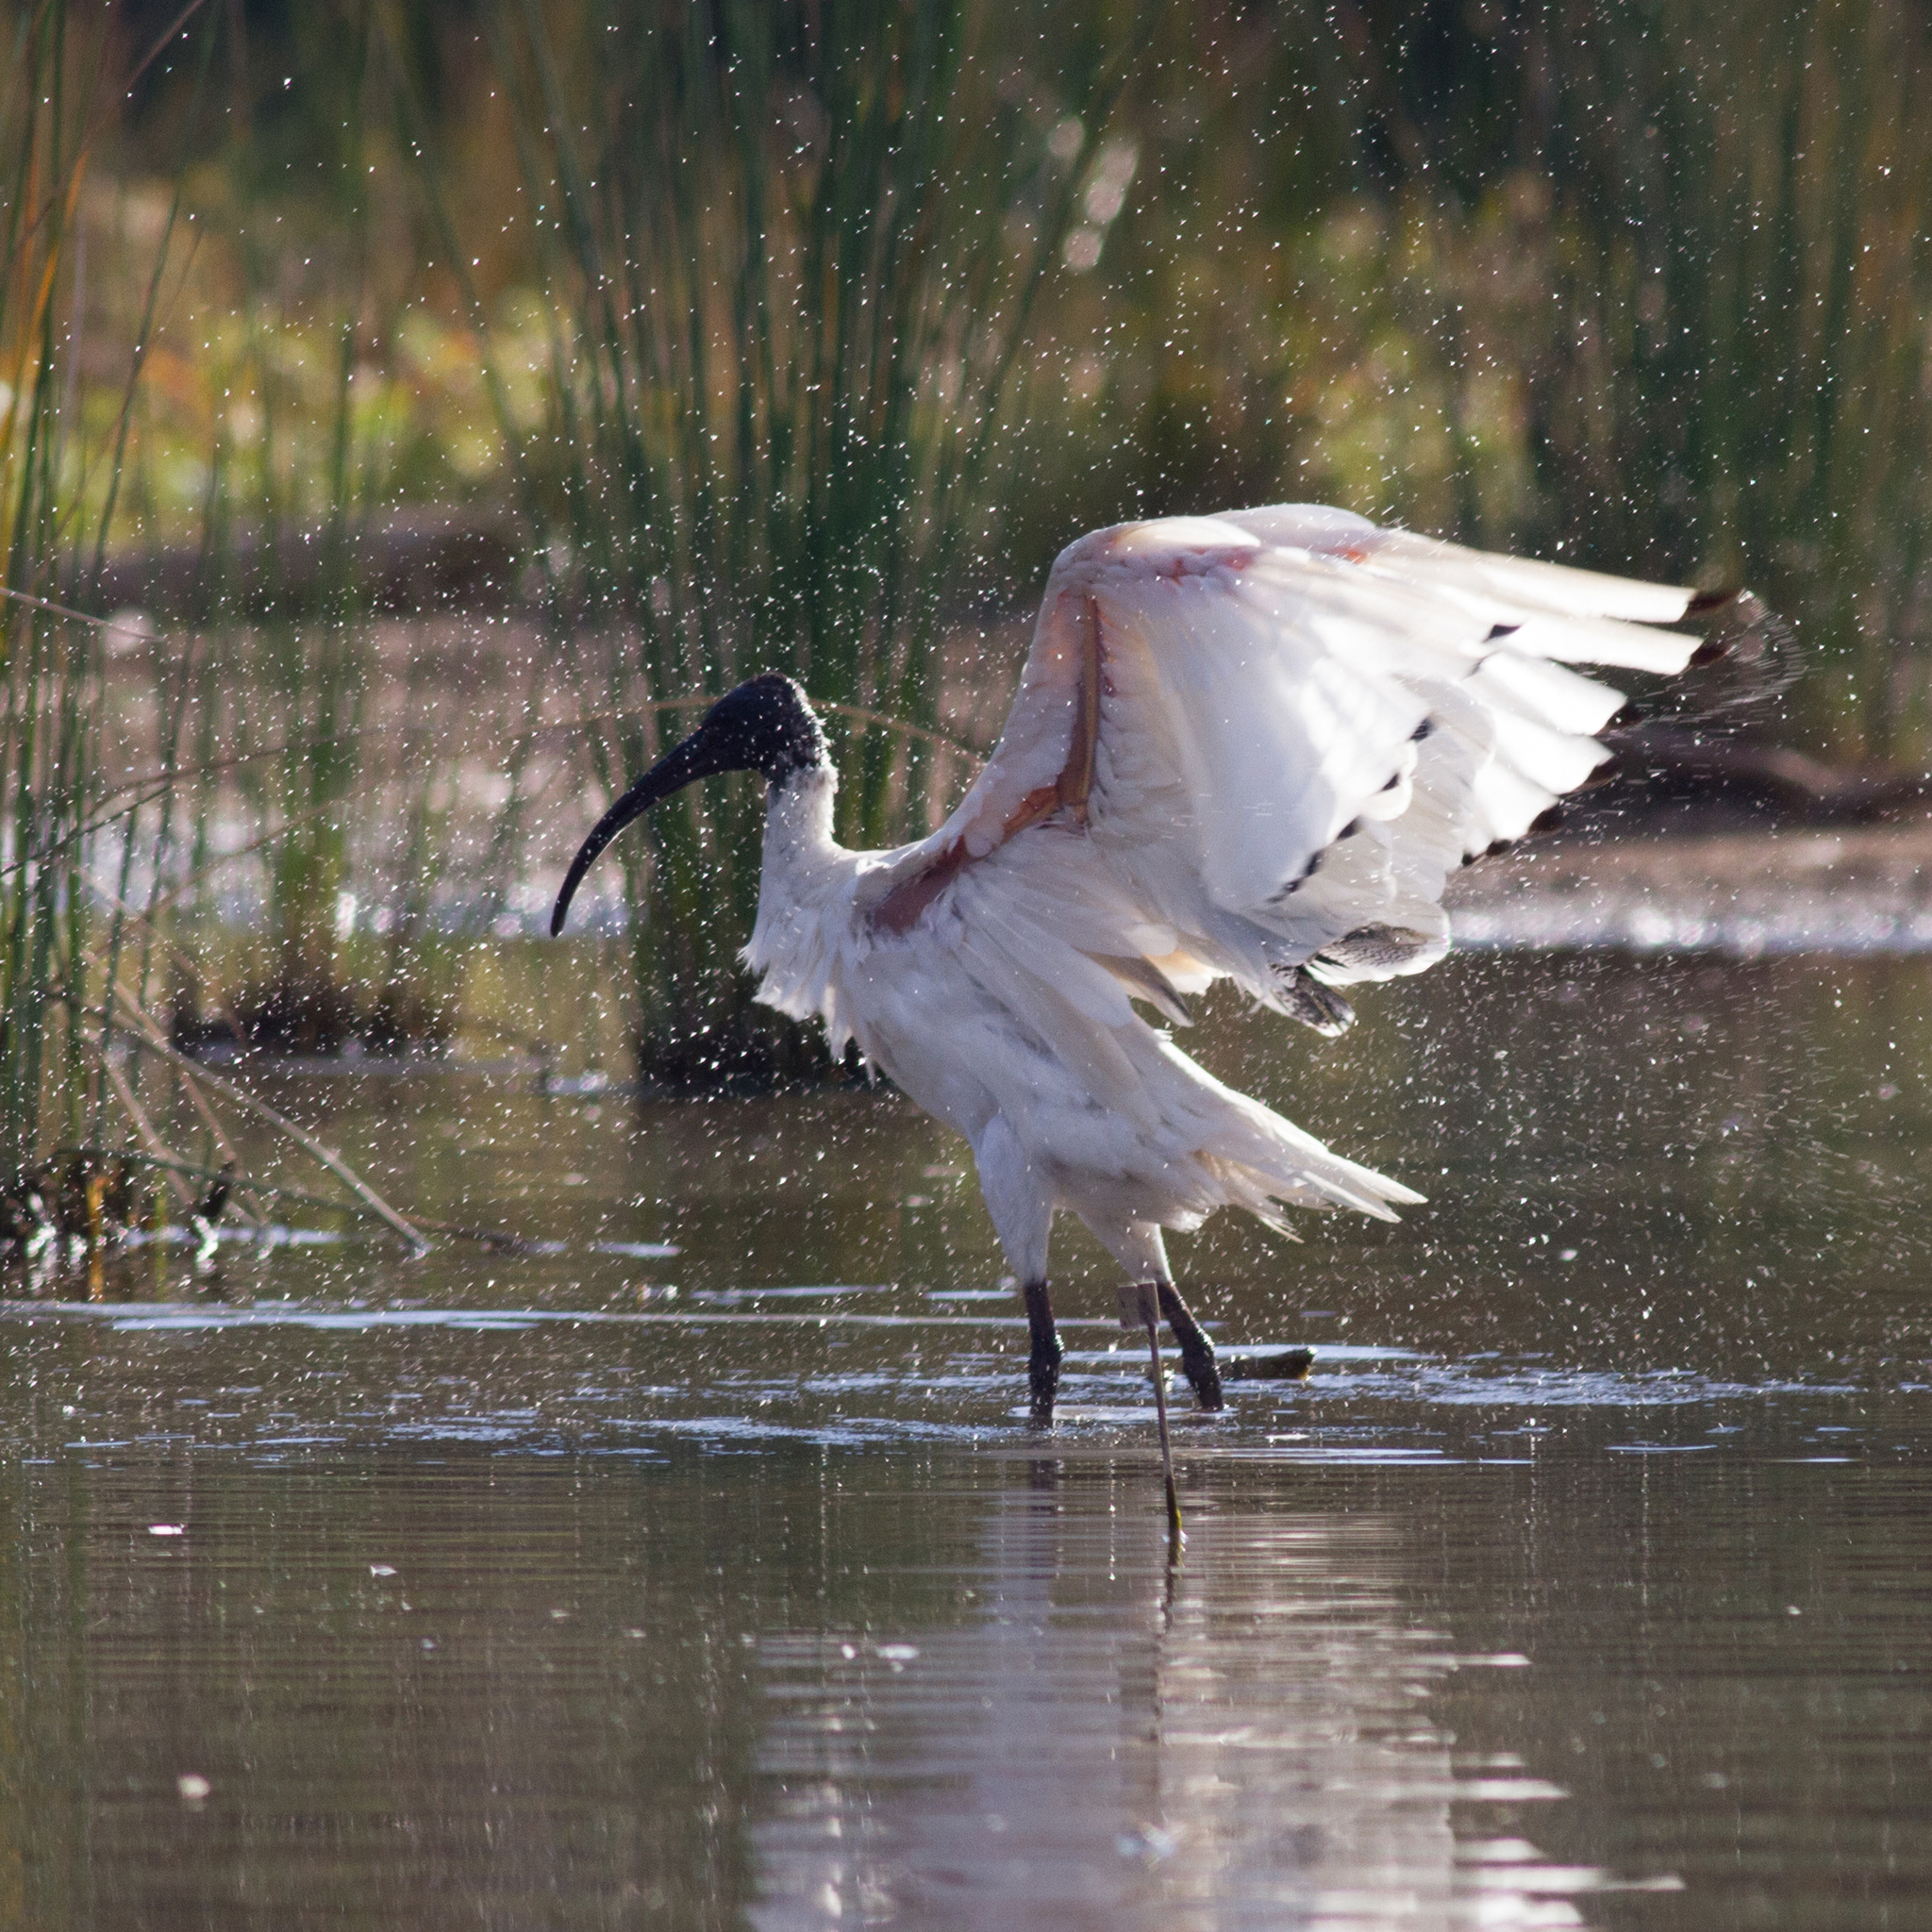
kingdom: Animalia
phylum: Chordata
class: Aves
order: Pelecaniformes
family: Threskiornithidae
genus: Threskiornis
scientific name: Threskiornis molucca
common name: Australian white ibis
